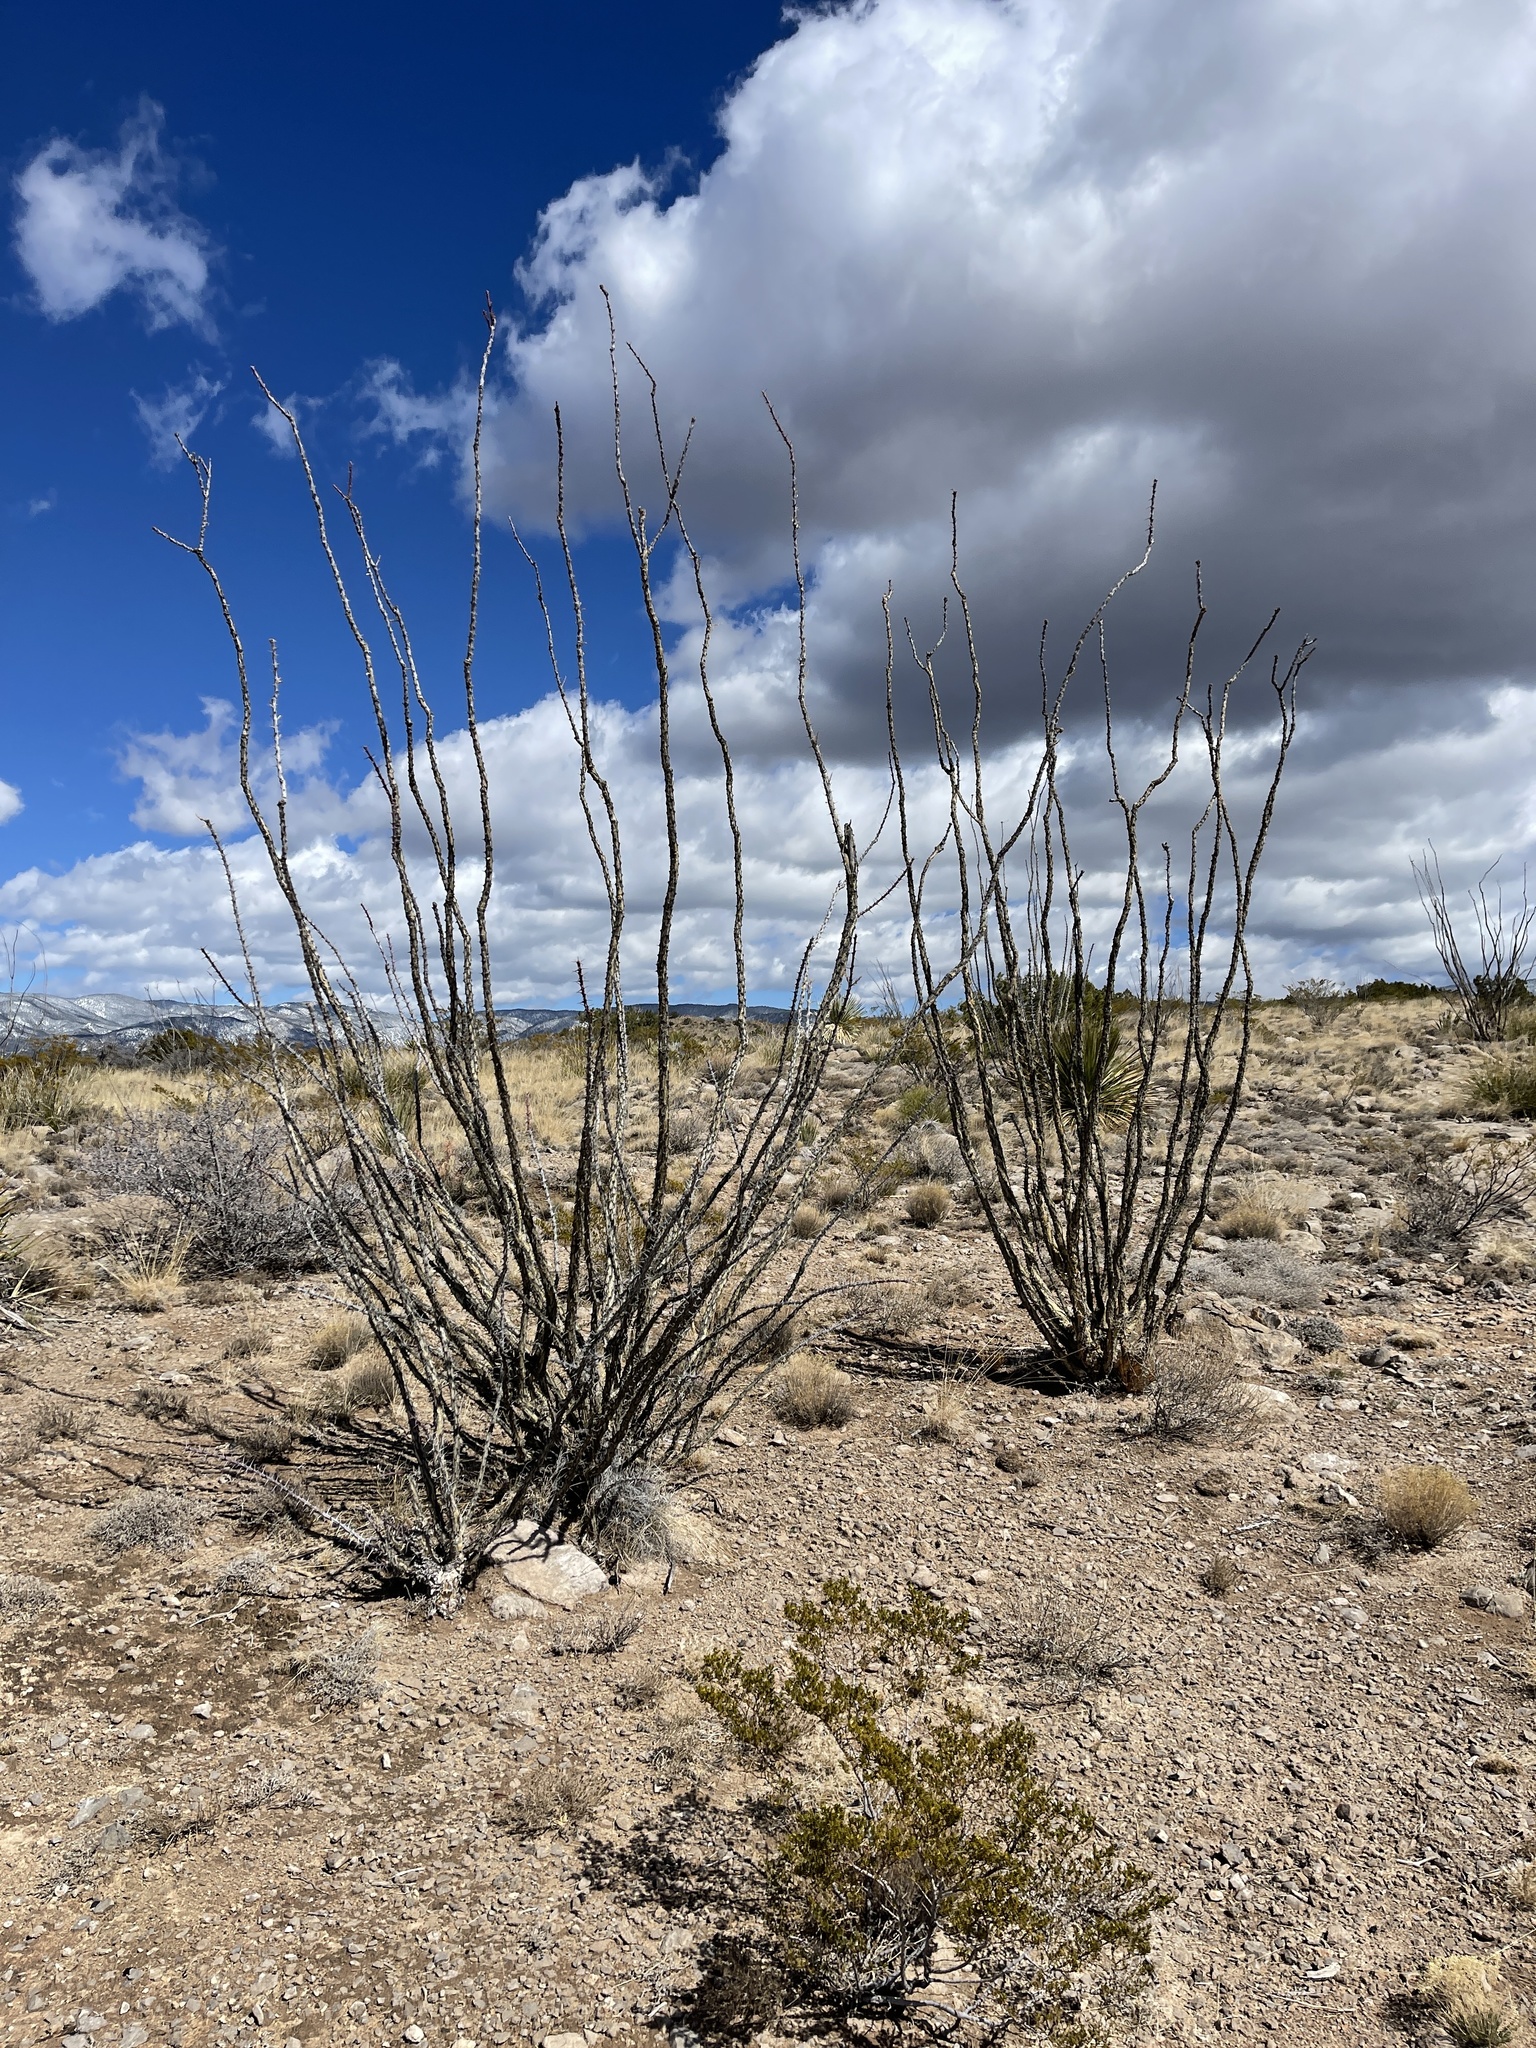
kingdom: Plantae
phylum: Tracheophyta
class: Magnoliopsida
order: Ericales
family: Fouquieriaceae
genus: Fouquieria
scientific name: Fouquieria splendens
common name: Vine-cactus
